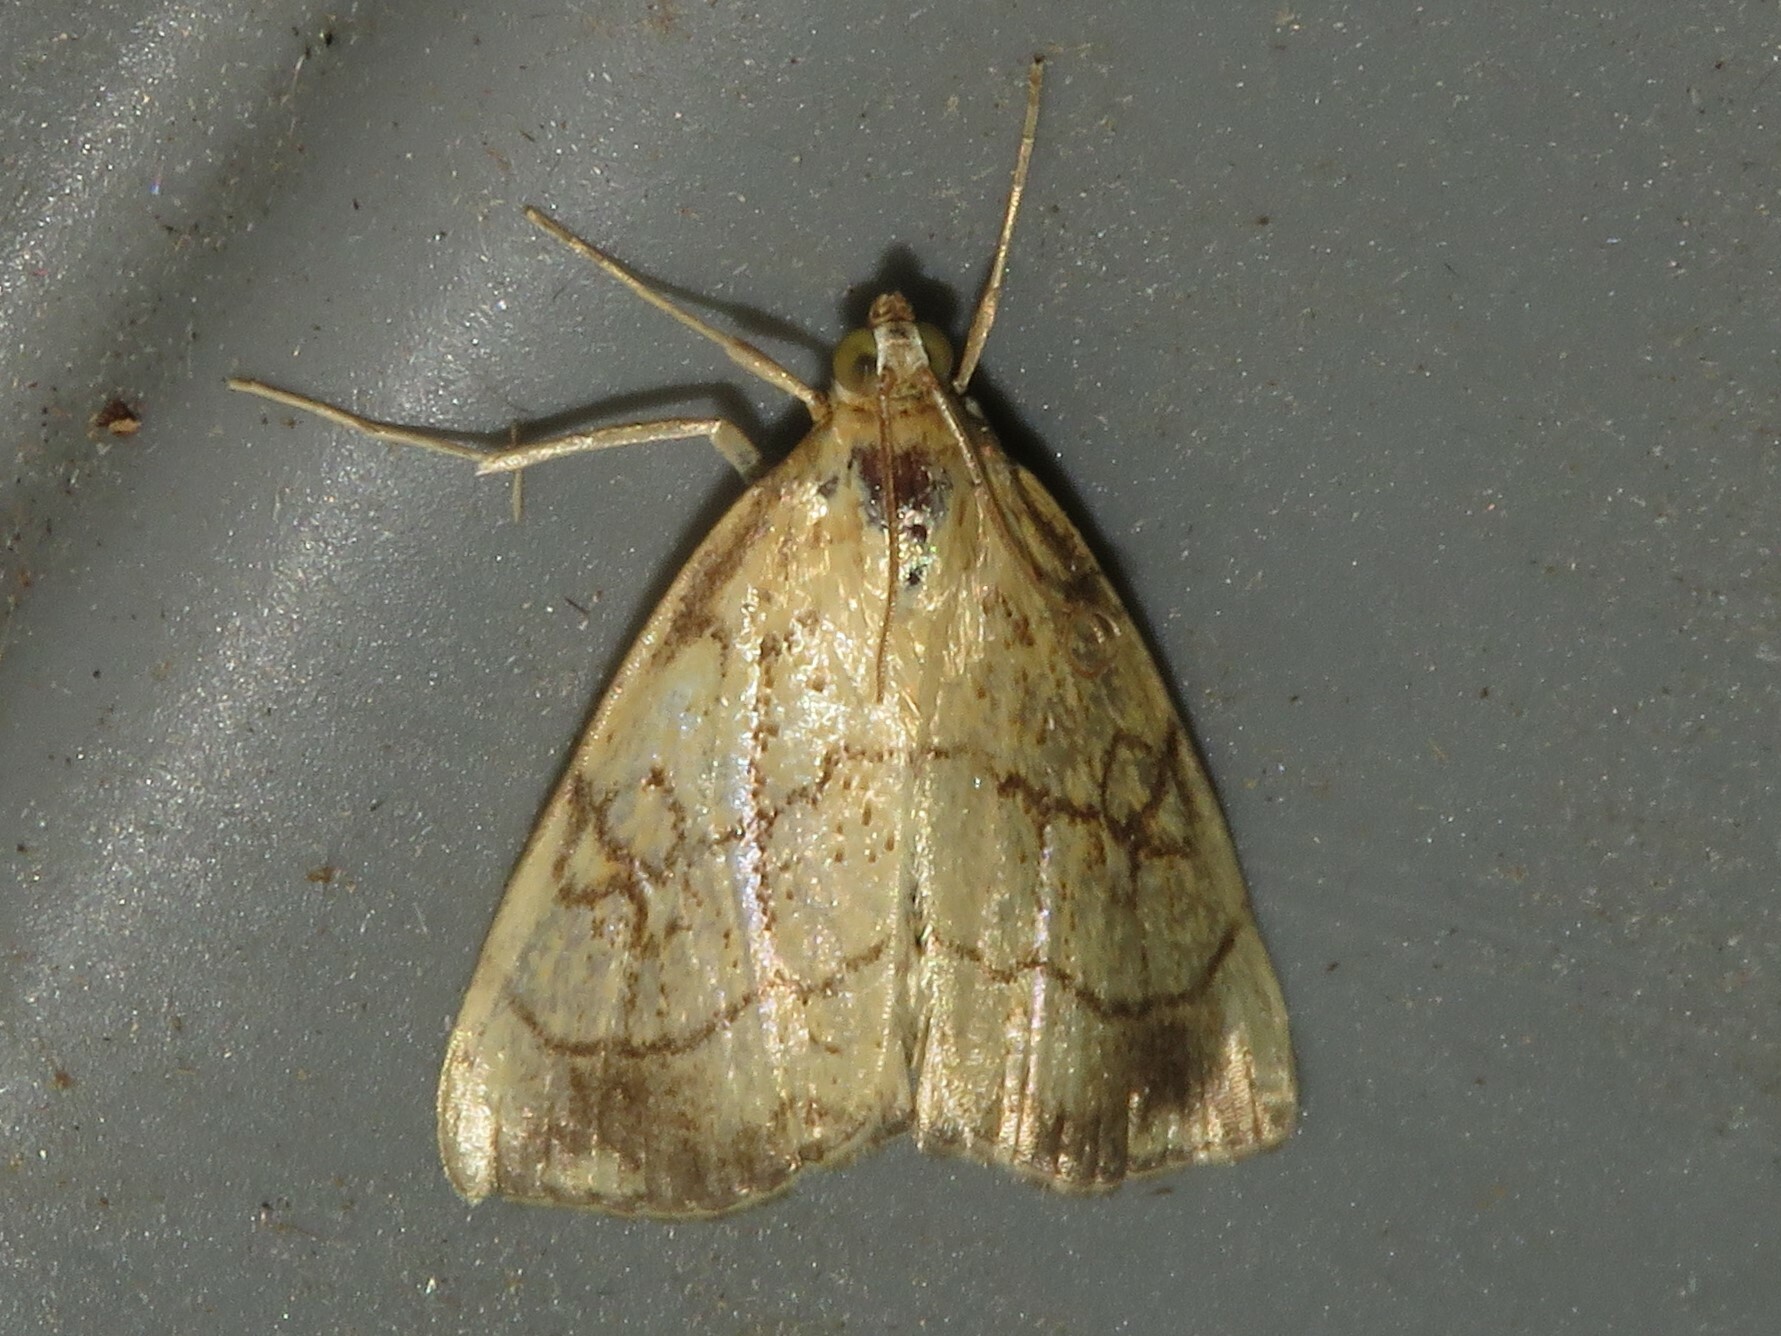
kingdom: Animalia
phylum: Arthropoda
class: Insecta
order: Lepidoptera
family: Crambidae
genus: Evergestis
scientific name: Evergestis pallidata
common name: Chequered pearl
